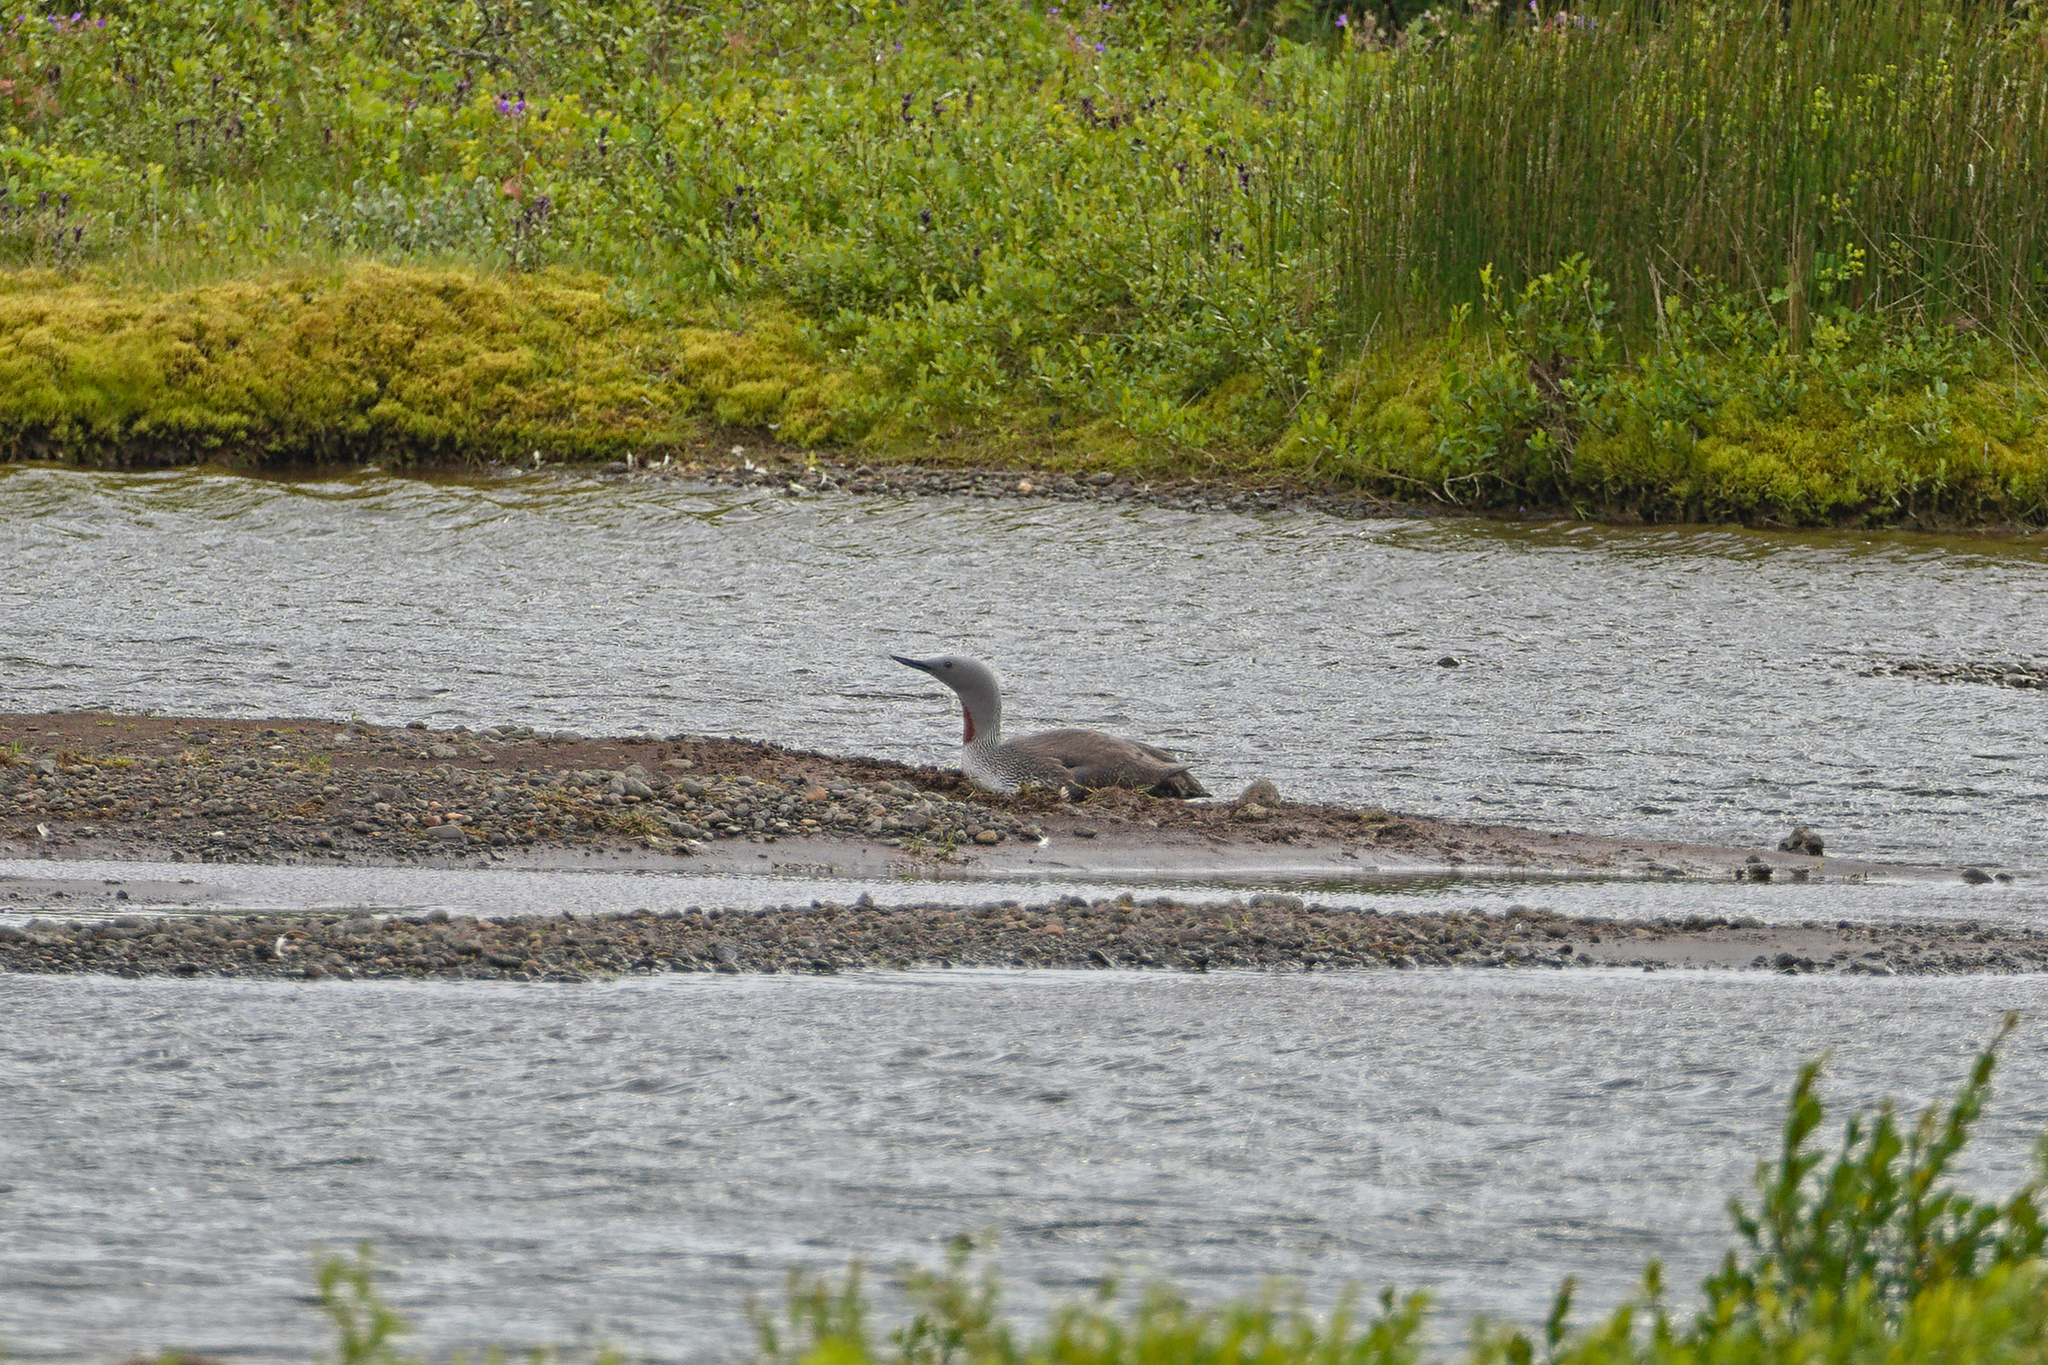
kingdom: Animalia
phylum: Chordata
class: Aves
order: Gaviiformes
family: Gaviidae
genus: Gavia
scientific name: Gavia stellata
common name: Red-throated loon
